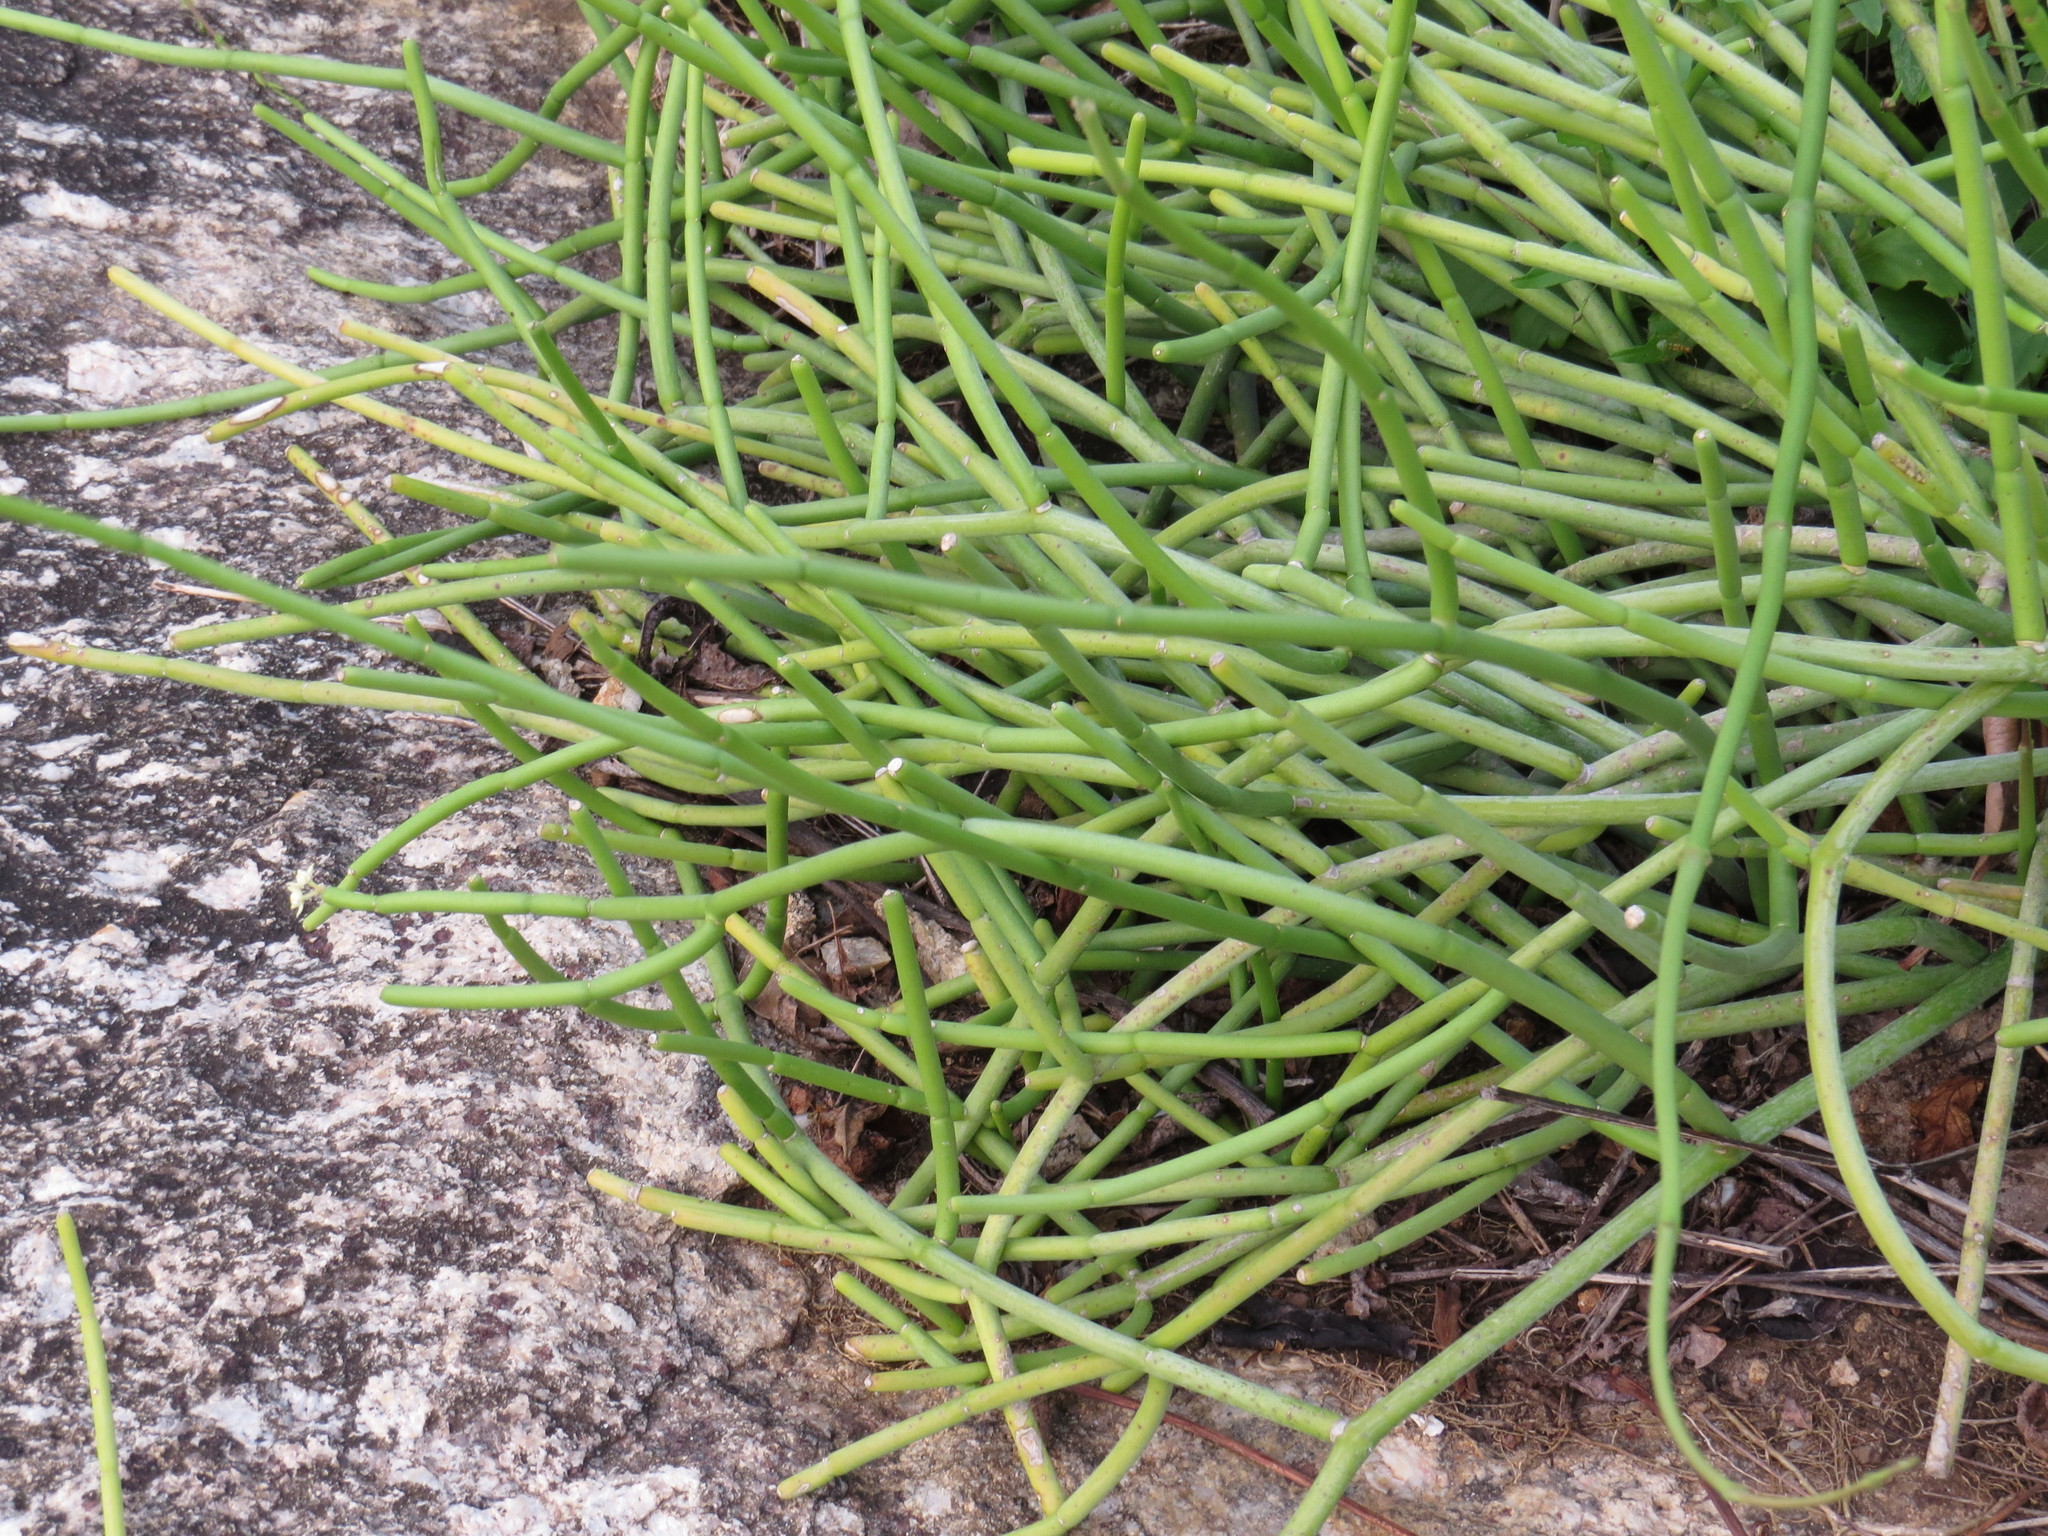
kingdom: Plantae
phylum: Tracheophyta
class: Magnoliopsida
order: Gentianales
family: Apocynaceae
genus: Cynanchum
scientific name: Cynanchum viminale
